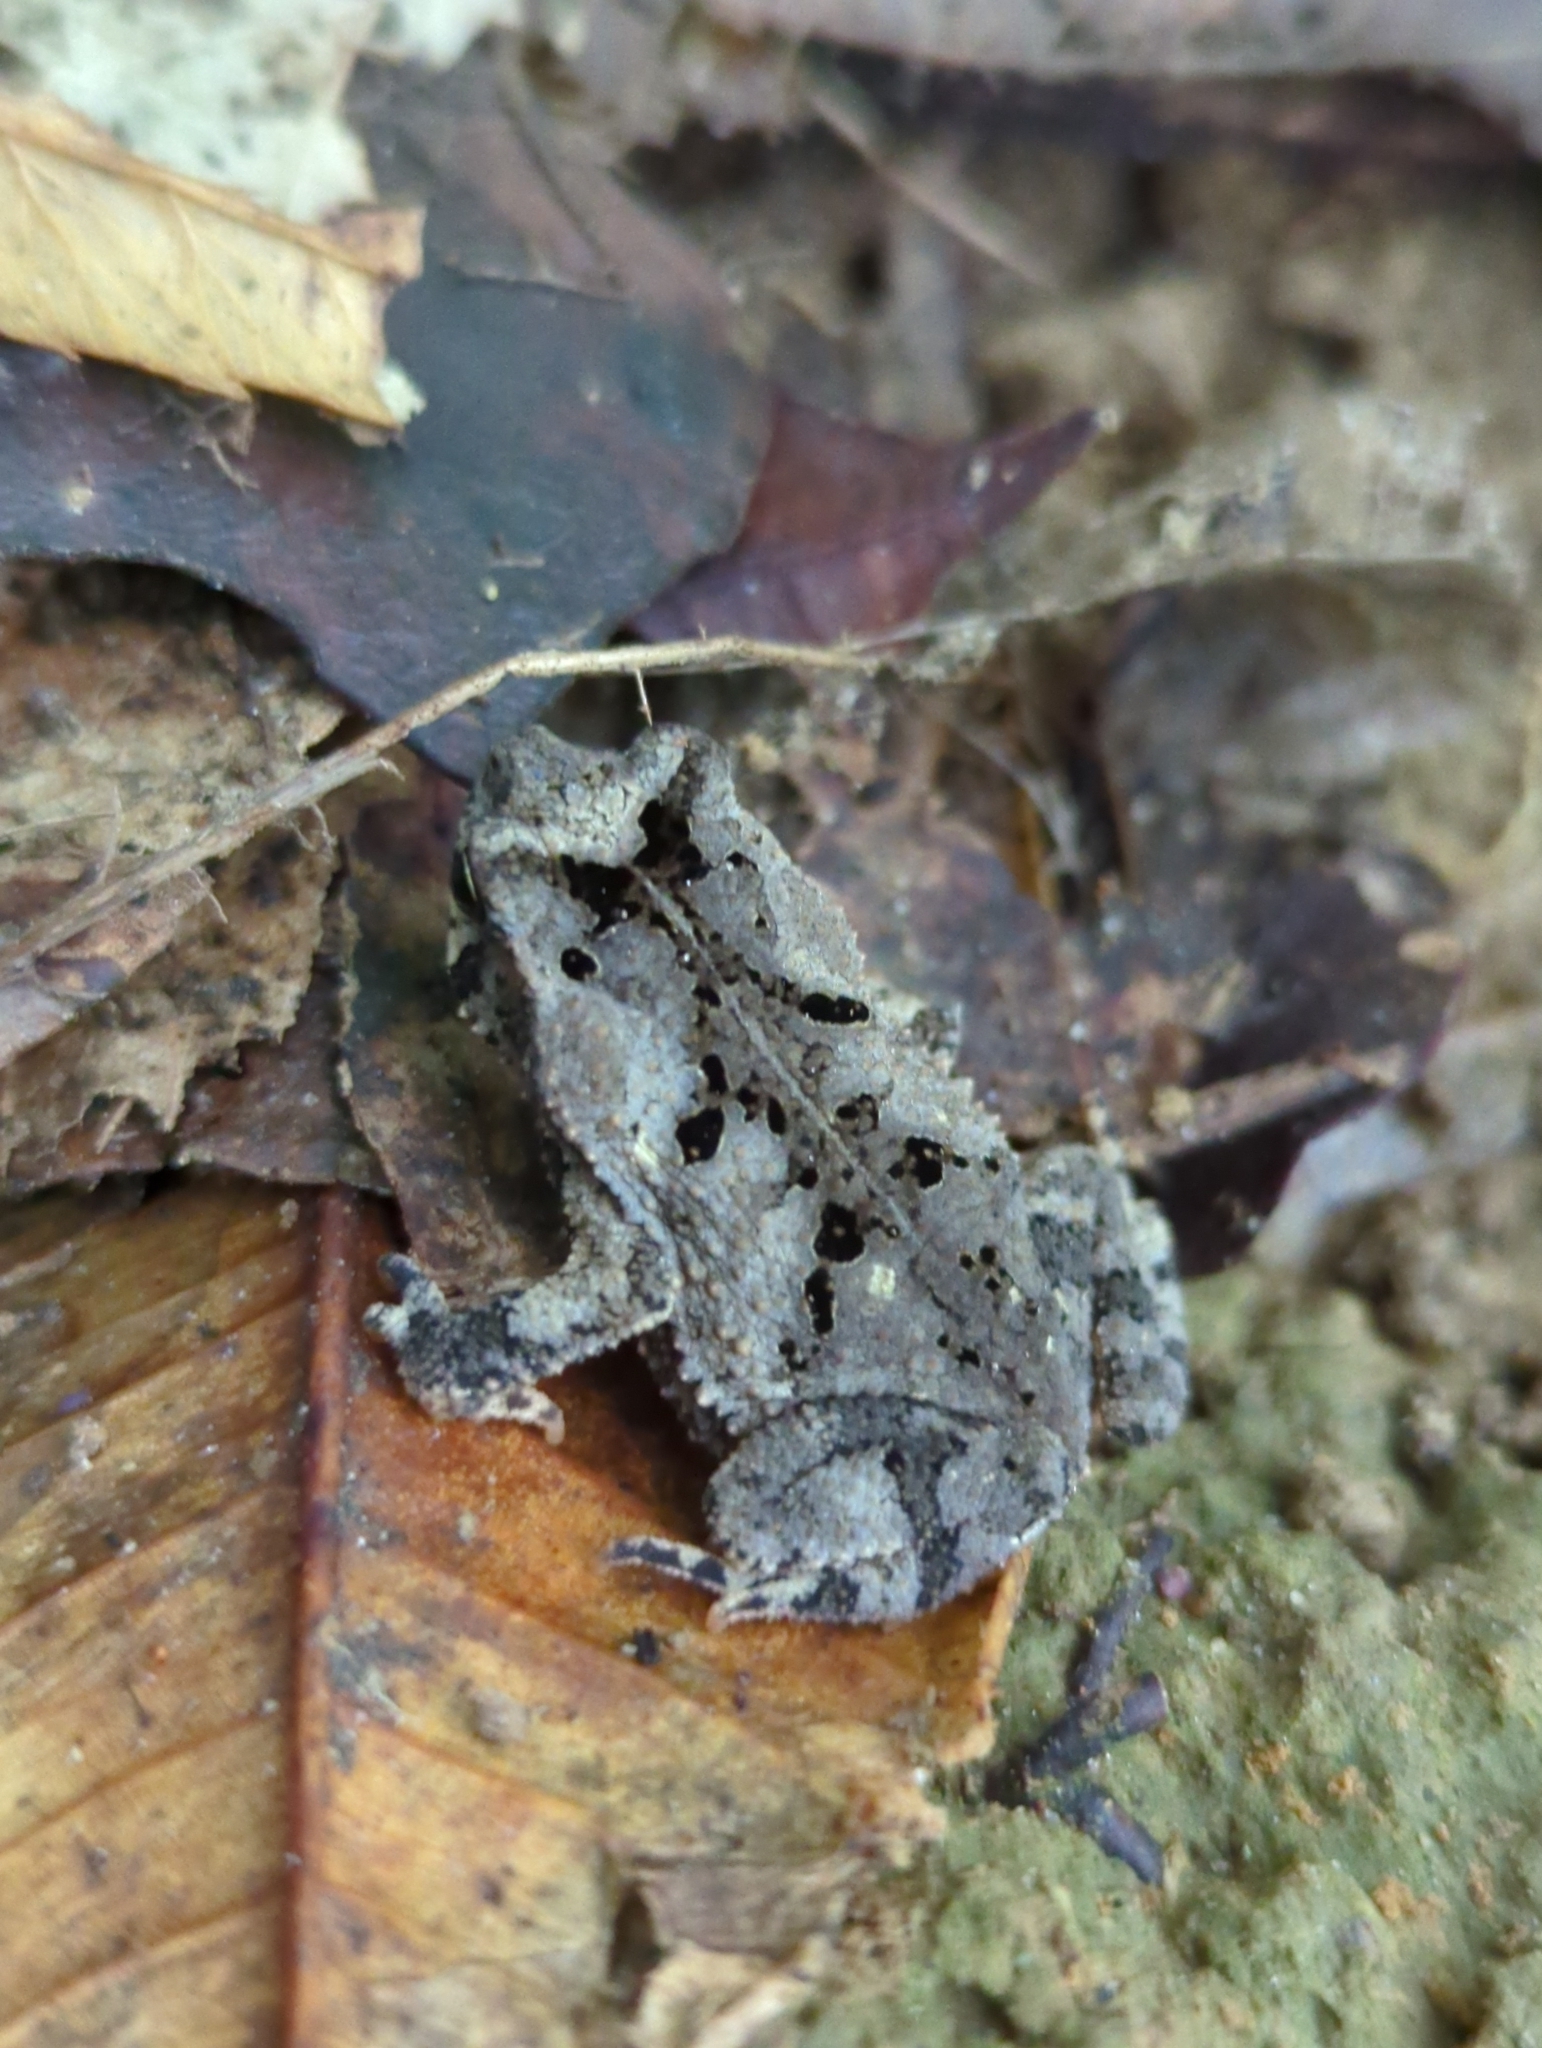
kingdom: Animalia
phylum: Chordata
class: Amphibia
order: Anura
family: Bufonidae
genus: Rhinella
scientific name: Rhinella sternosignata
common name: Falcon toad
